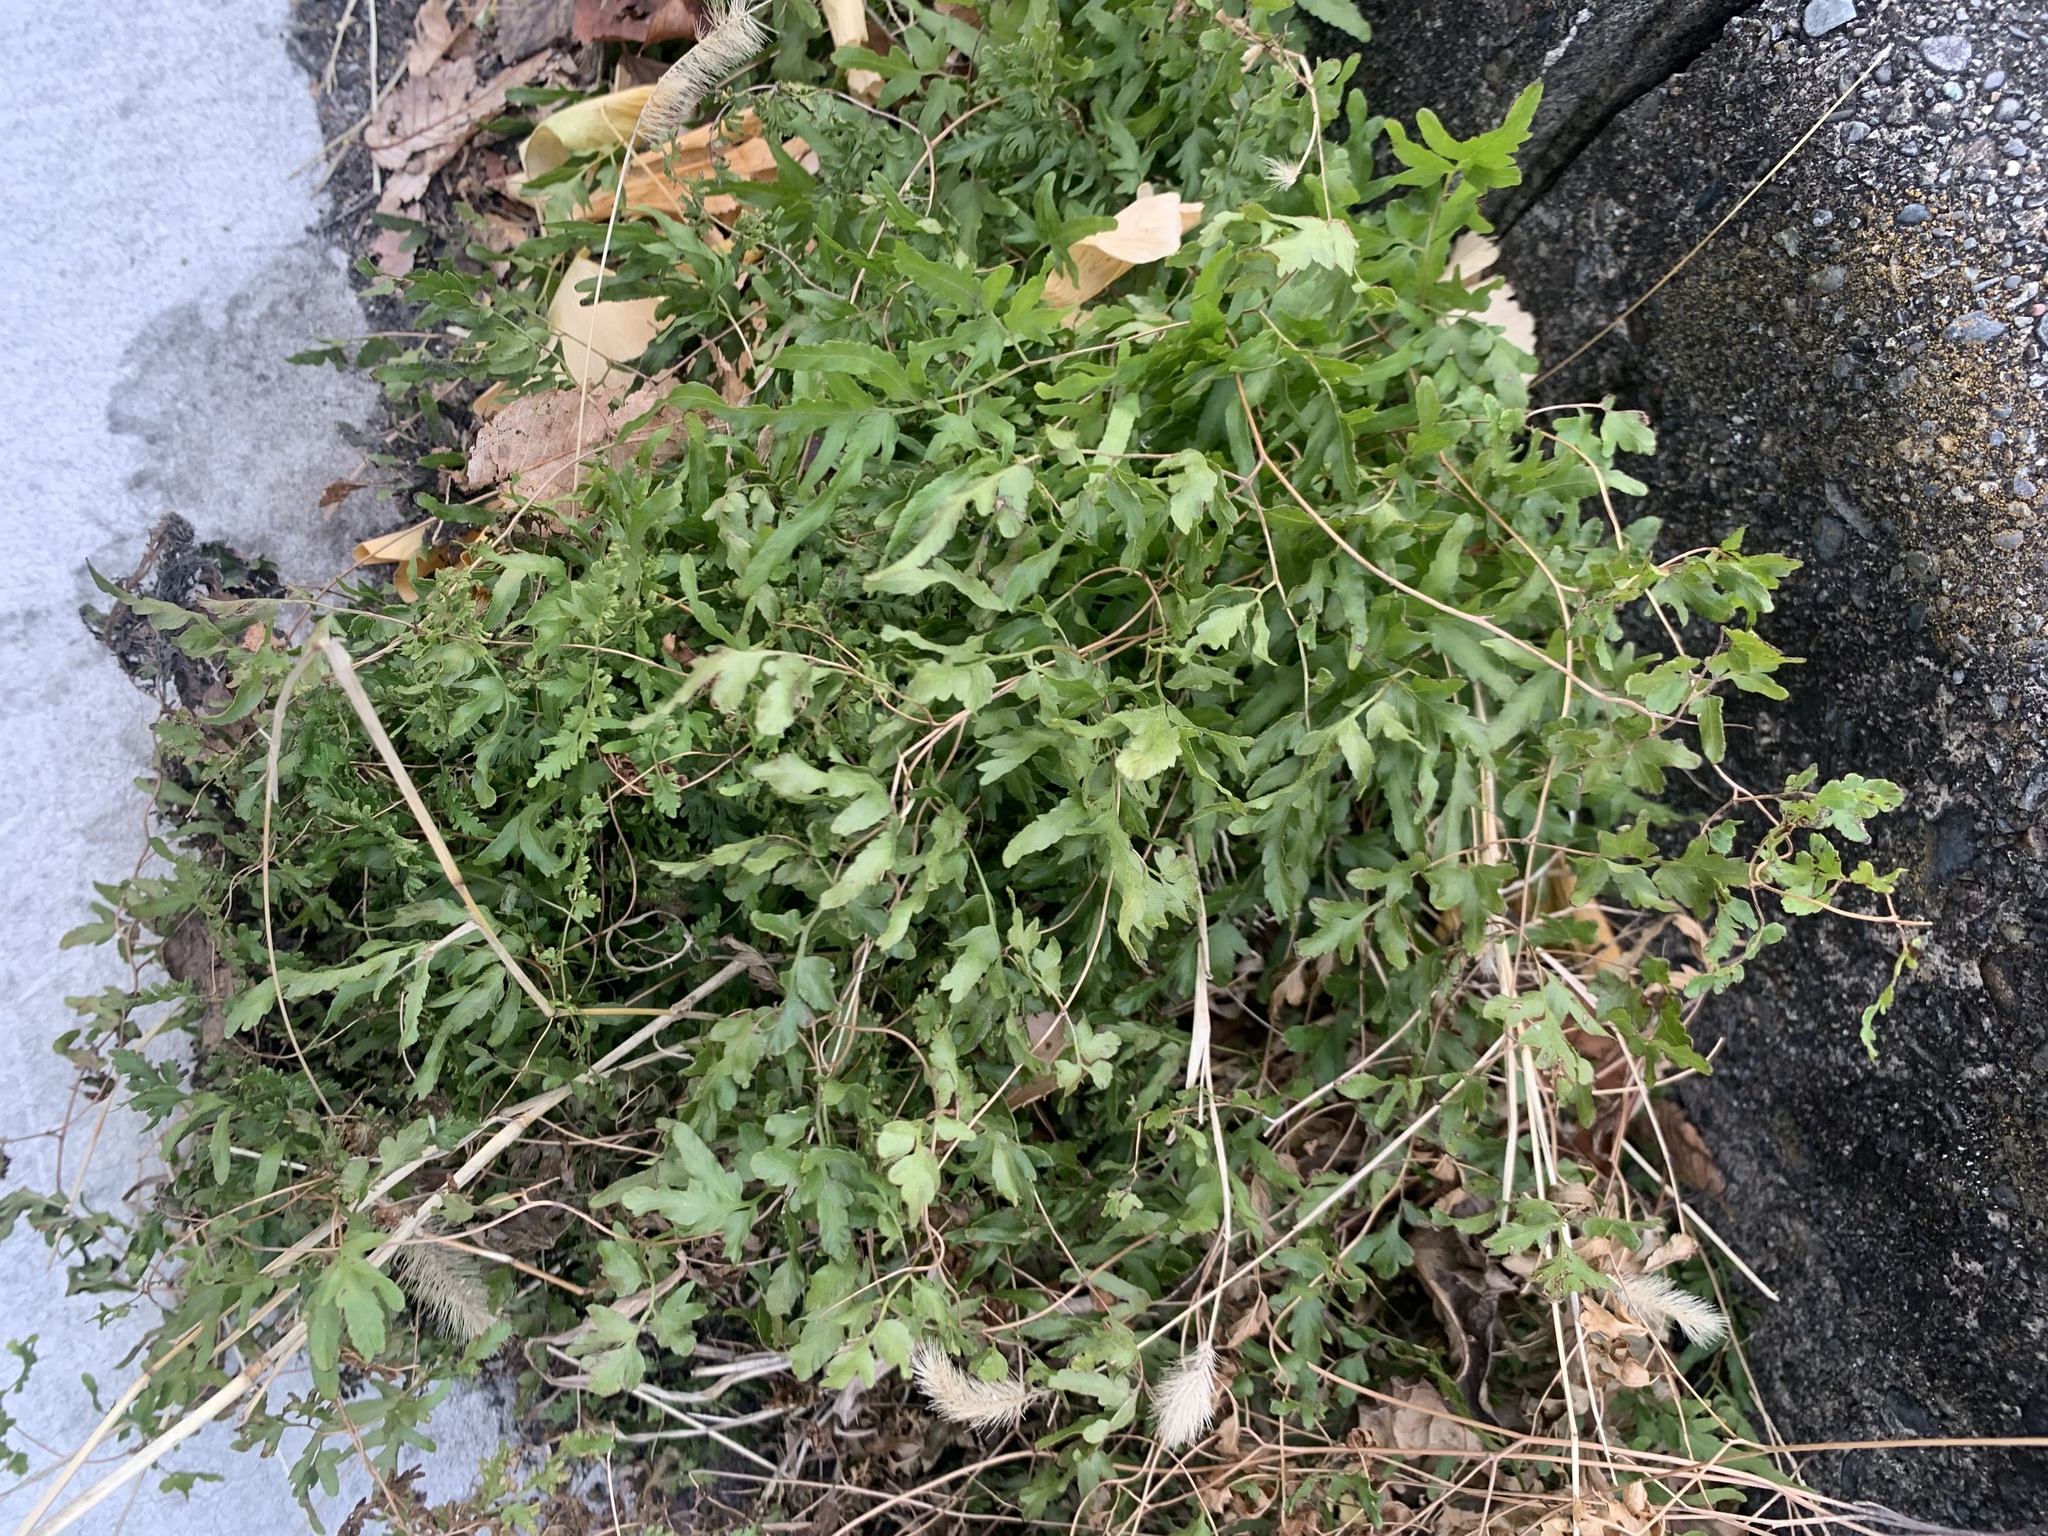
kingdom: Plantae
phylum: Tracheophyta
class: Polypodiopsida
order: Schizaeales
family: Lygodiaceae
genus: Lygodium
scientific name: Lygodium japonicum
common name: Japanese climbing fern
